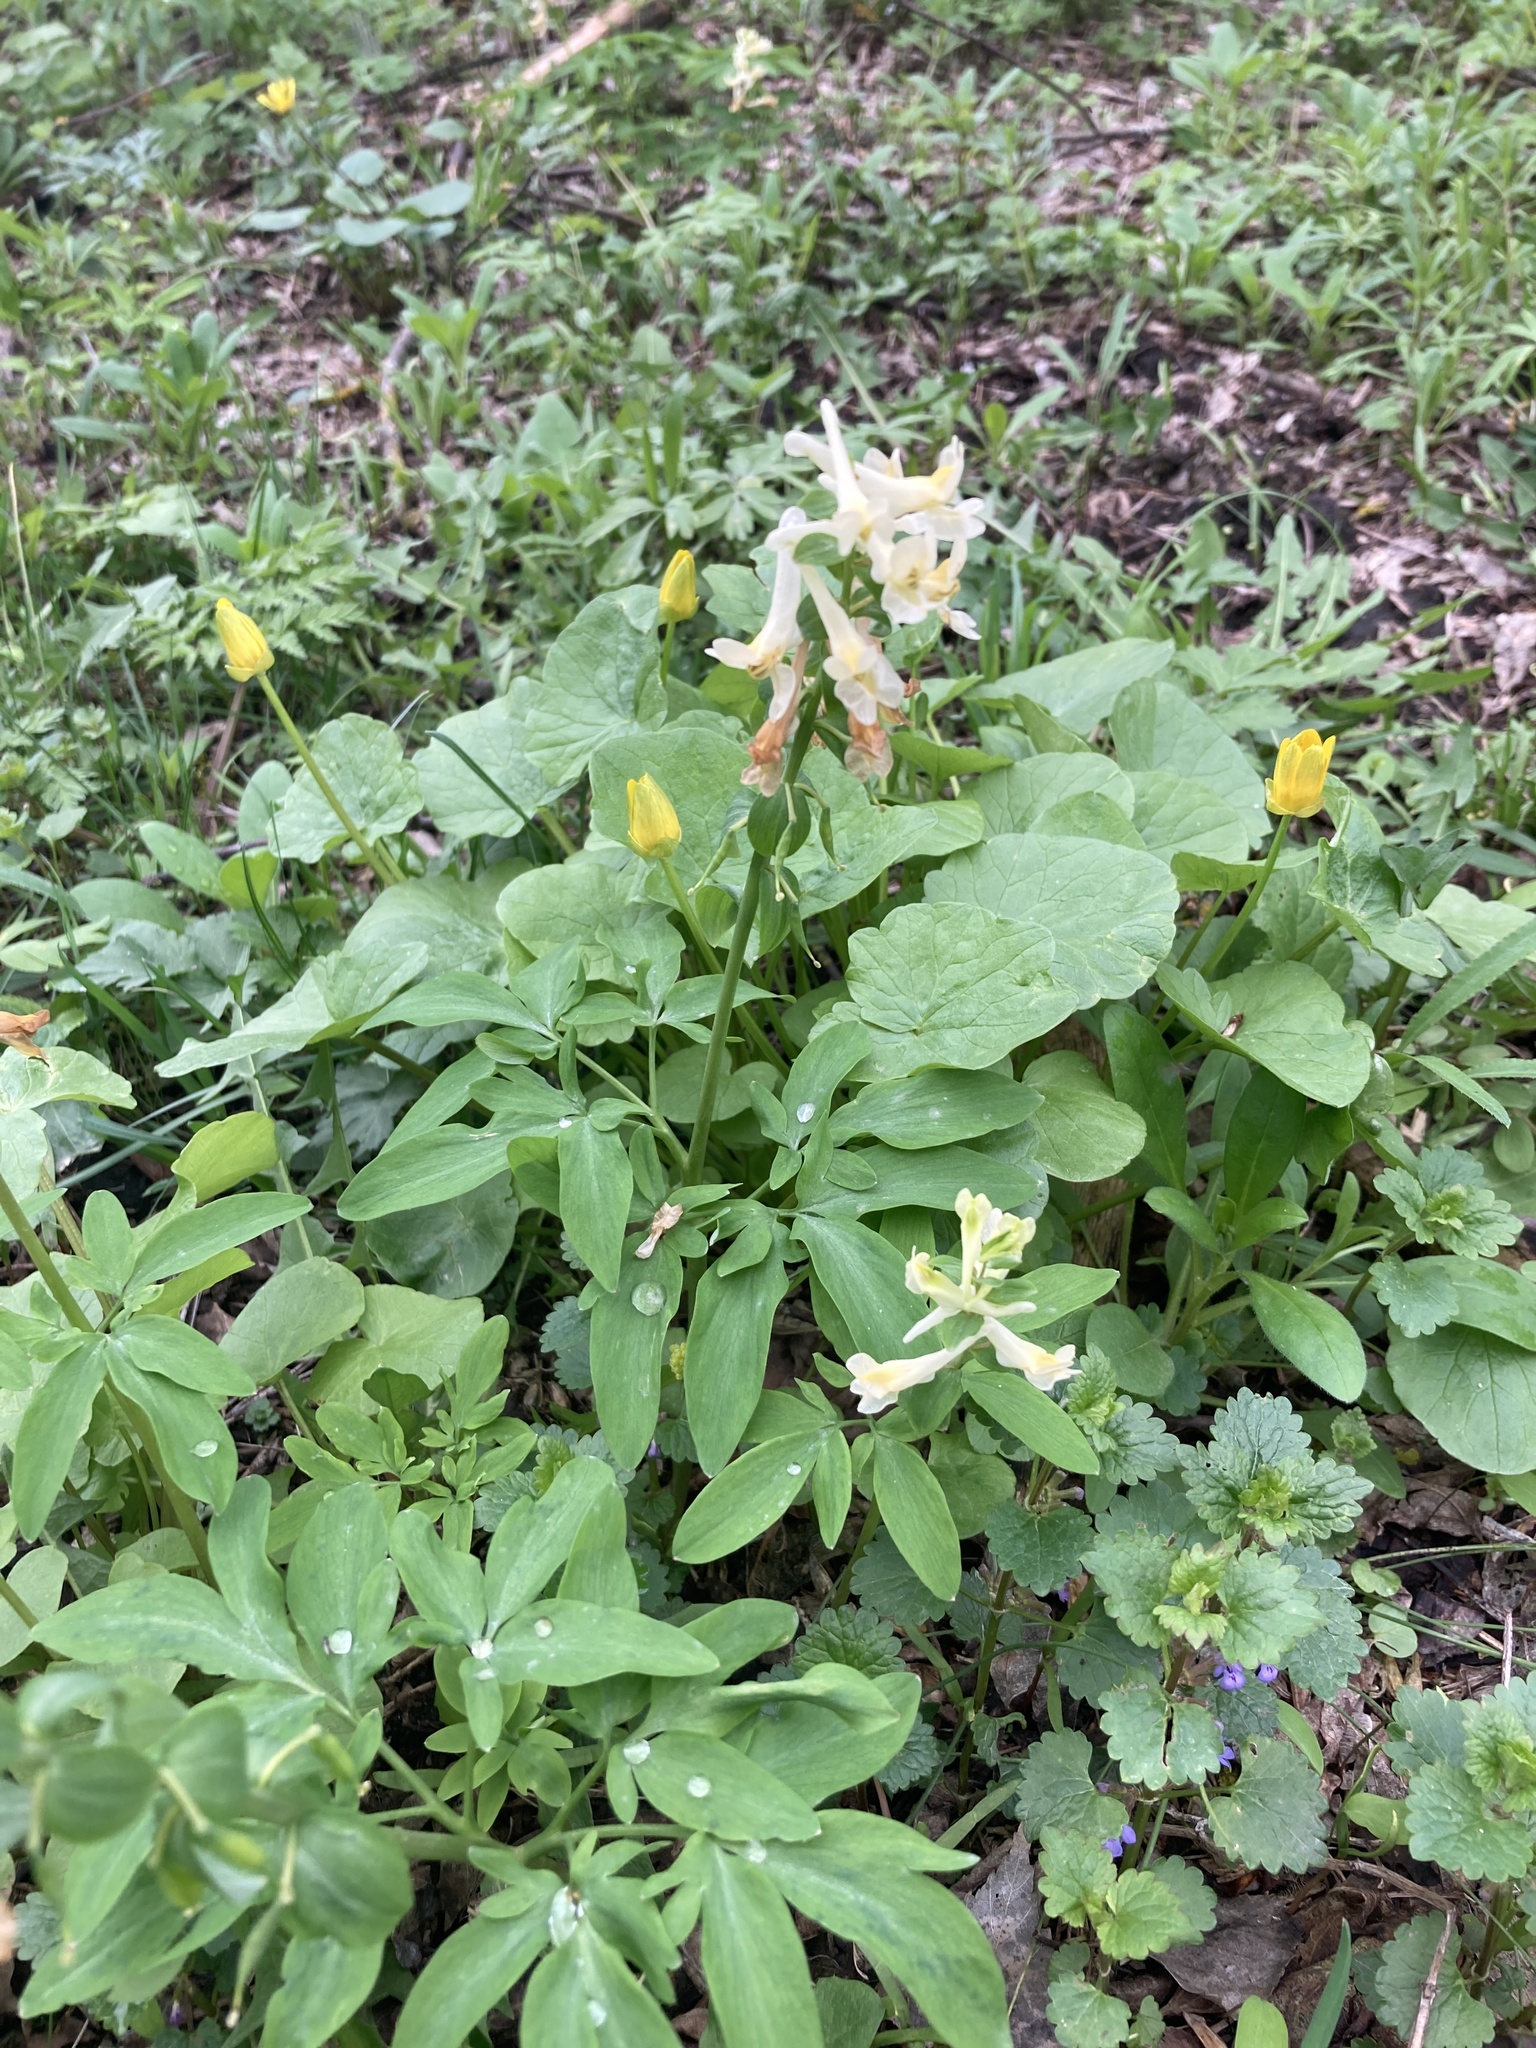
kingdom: Plantae
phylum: Tracheophyta
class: Magnoliopsida
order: Ranunculales
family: Papaveraceae
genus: Corydalis
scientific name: Corydalis cava
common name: Hollowroot
